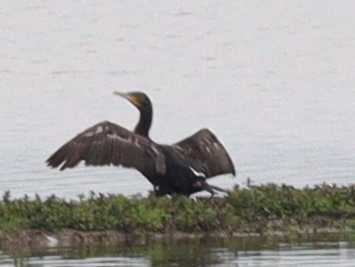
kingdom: Animalia
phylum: Chordata
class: Aves
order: Suliformes
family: Phalacrocoracidae
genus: Phalacrocorax
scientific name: Phalacrocorax carbo
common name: Great cormorant
